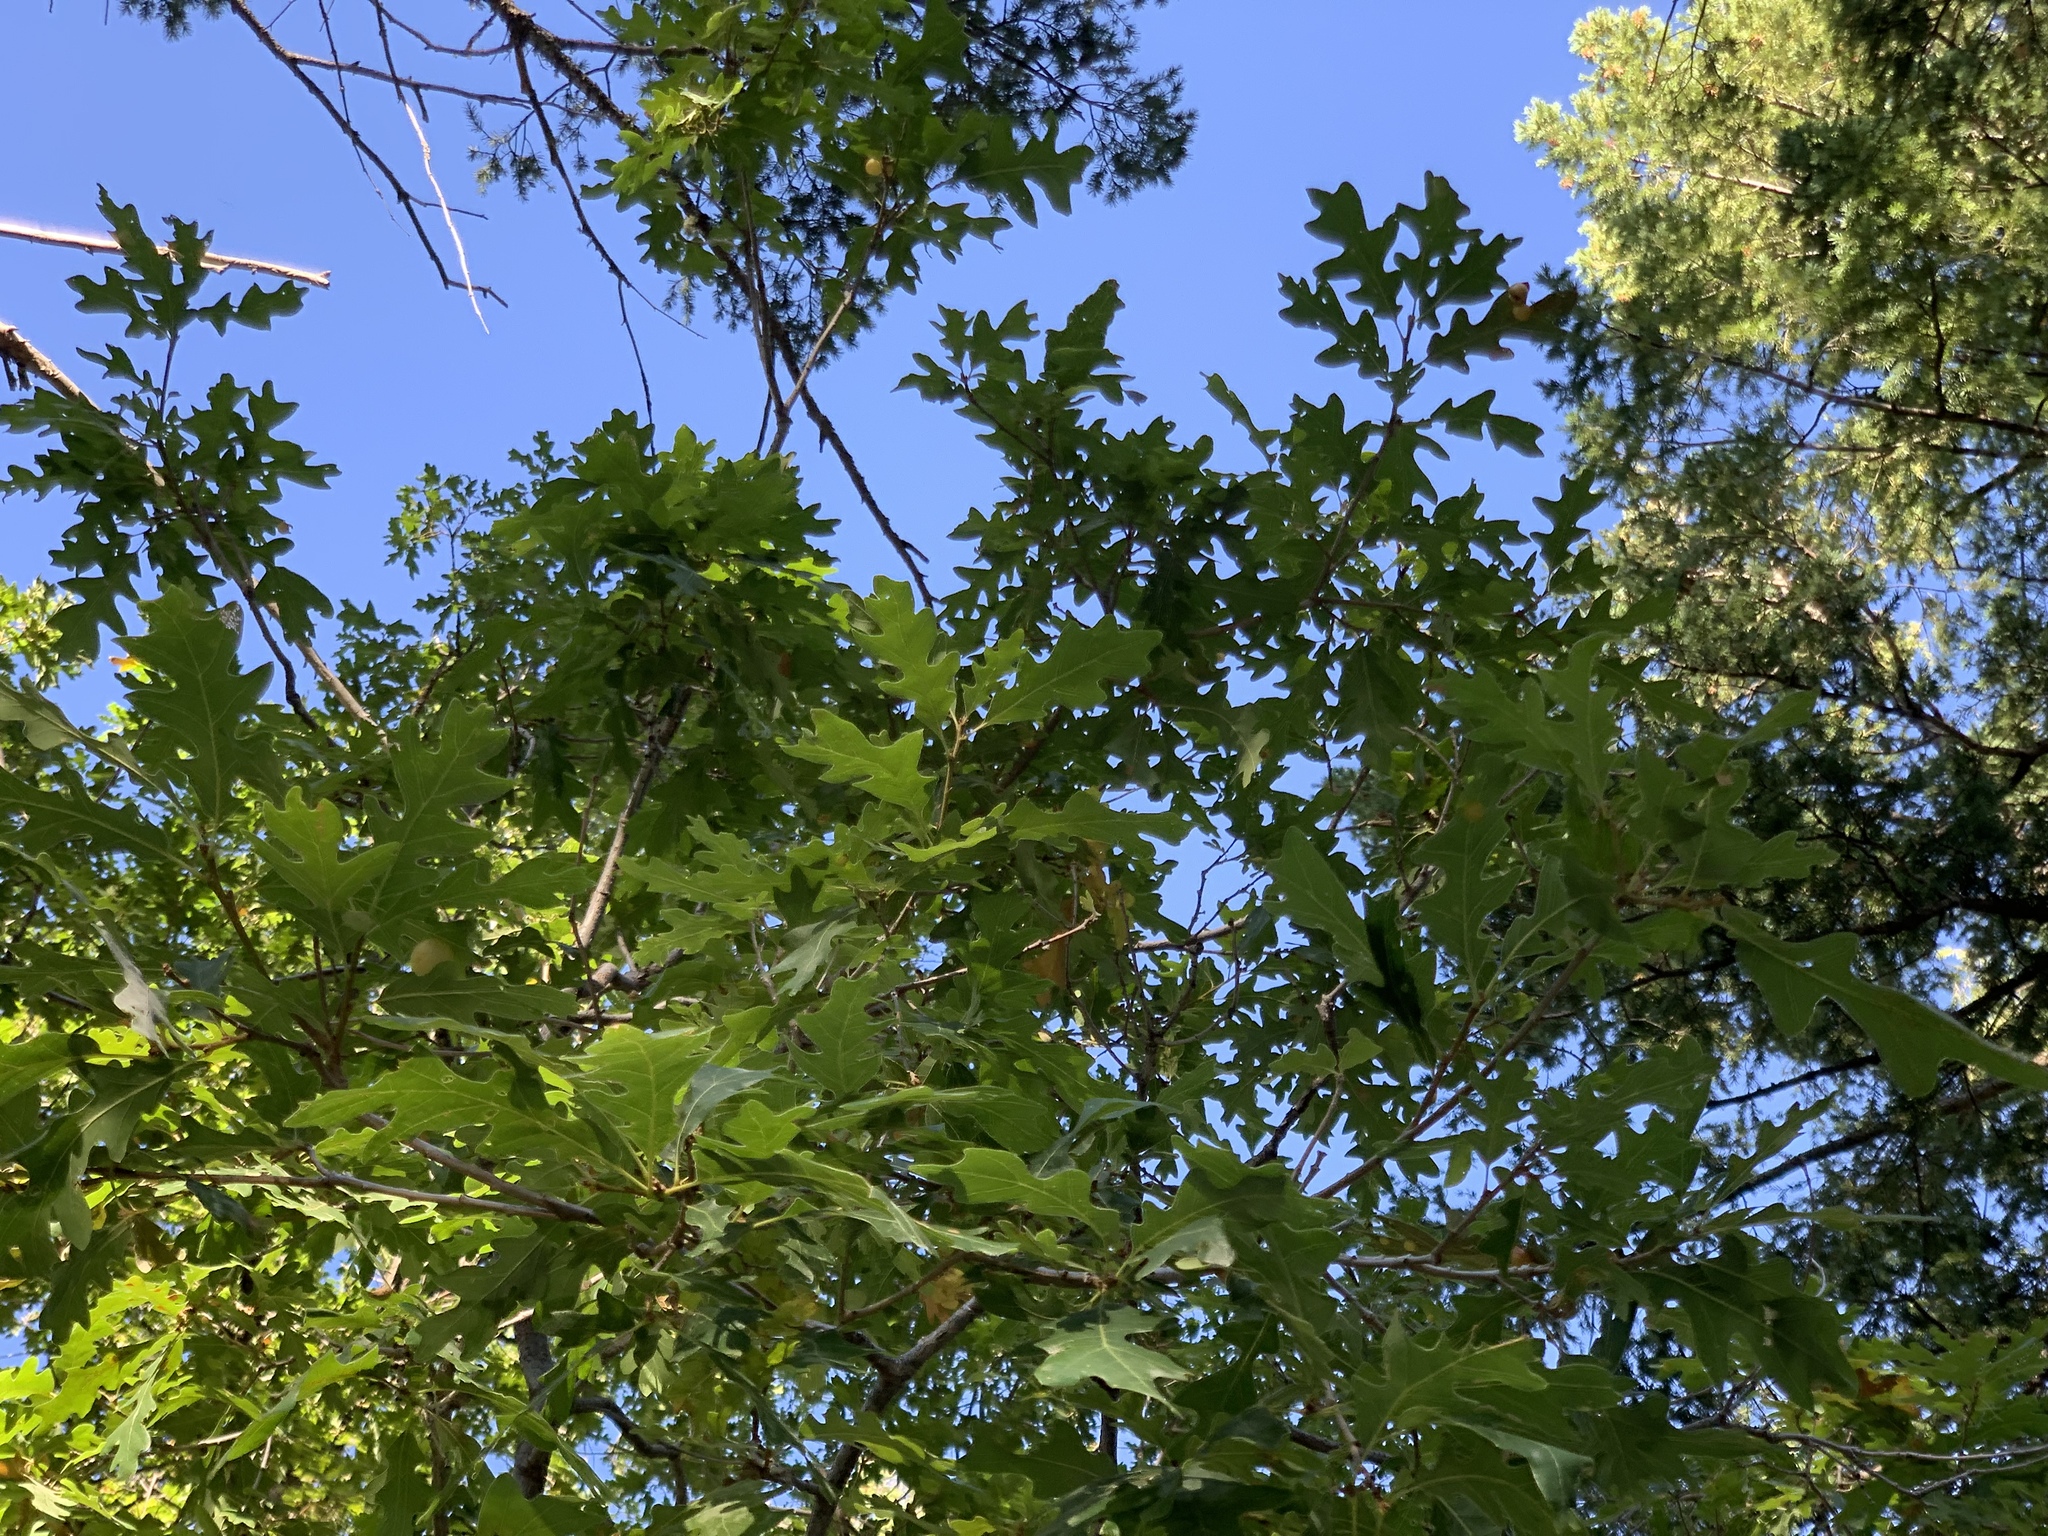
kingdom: Plantae
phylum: Tracheophyta
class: Magnoliopsida
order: Fagales
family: Fagaceae
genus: Quercus
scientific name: Quercus gambelii
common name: Gambel oak
